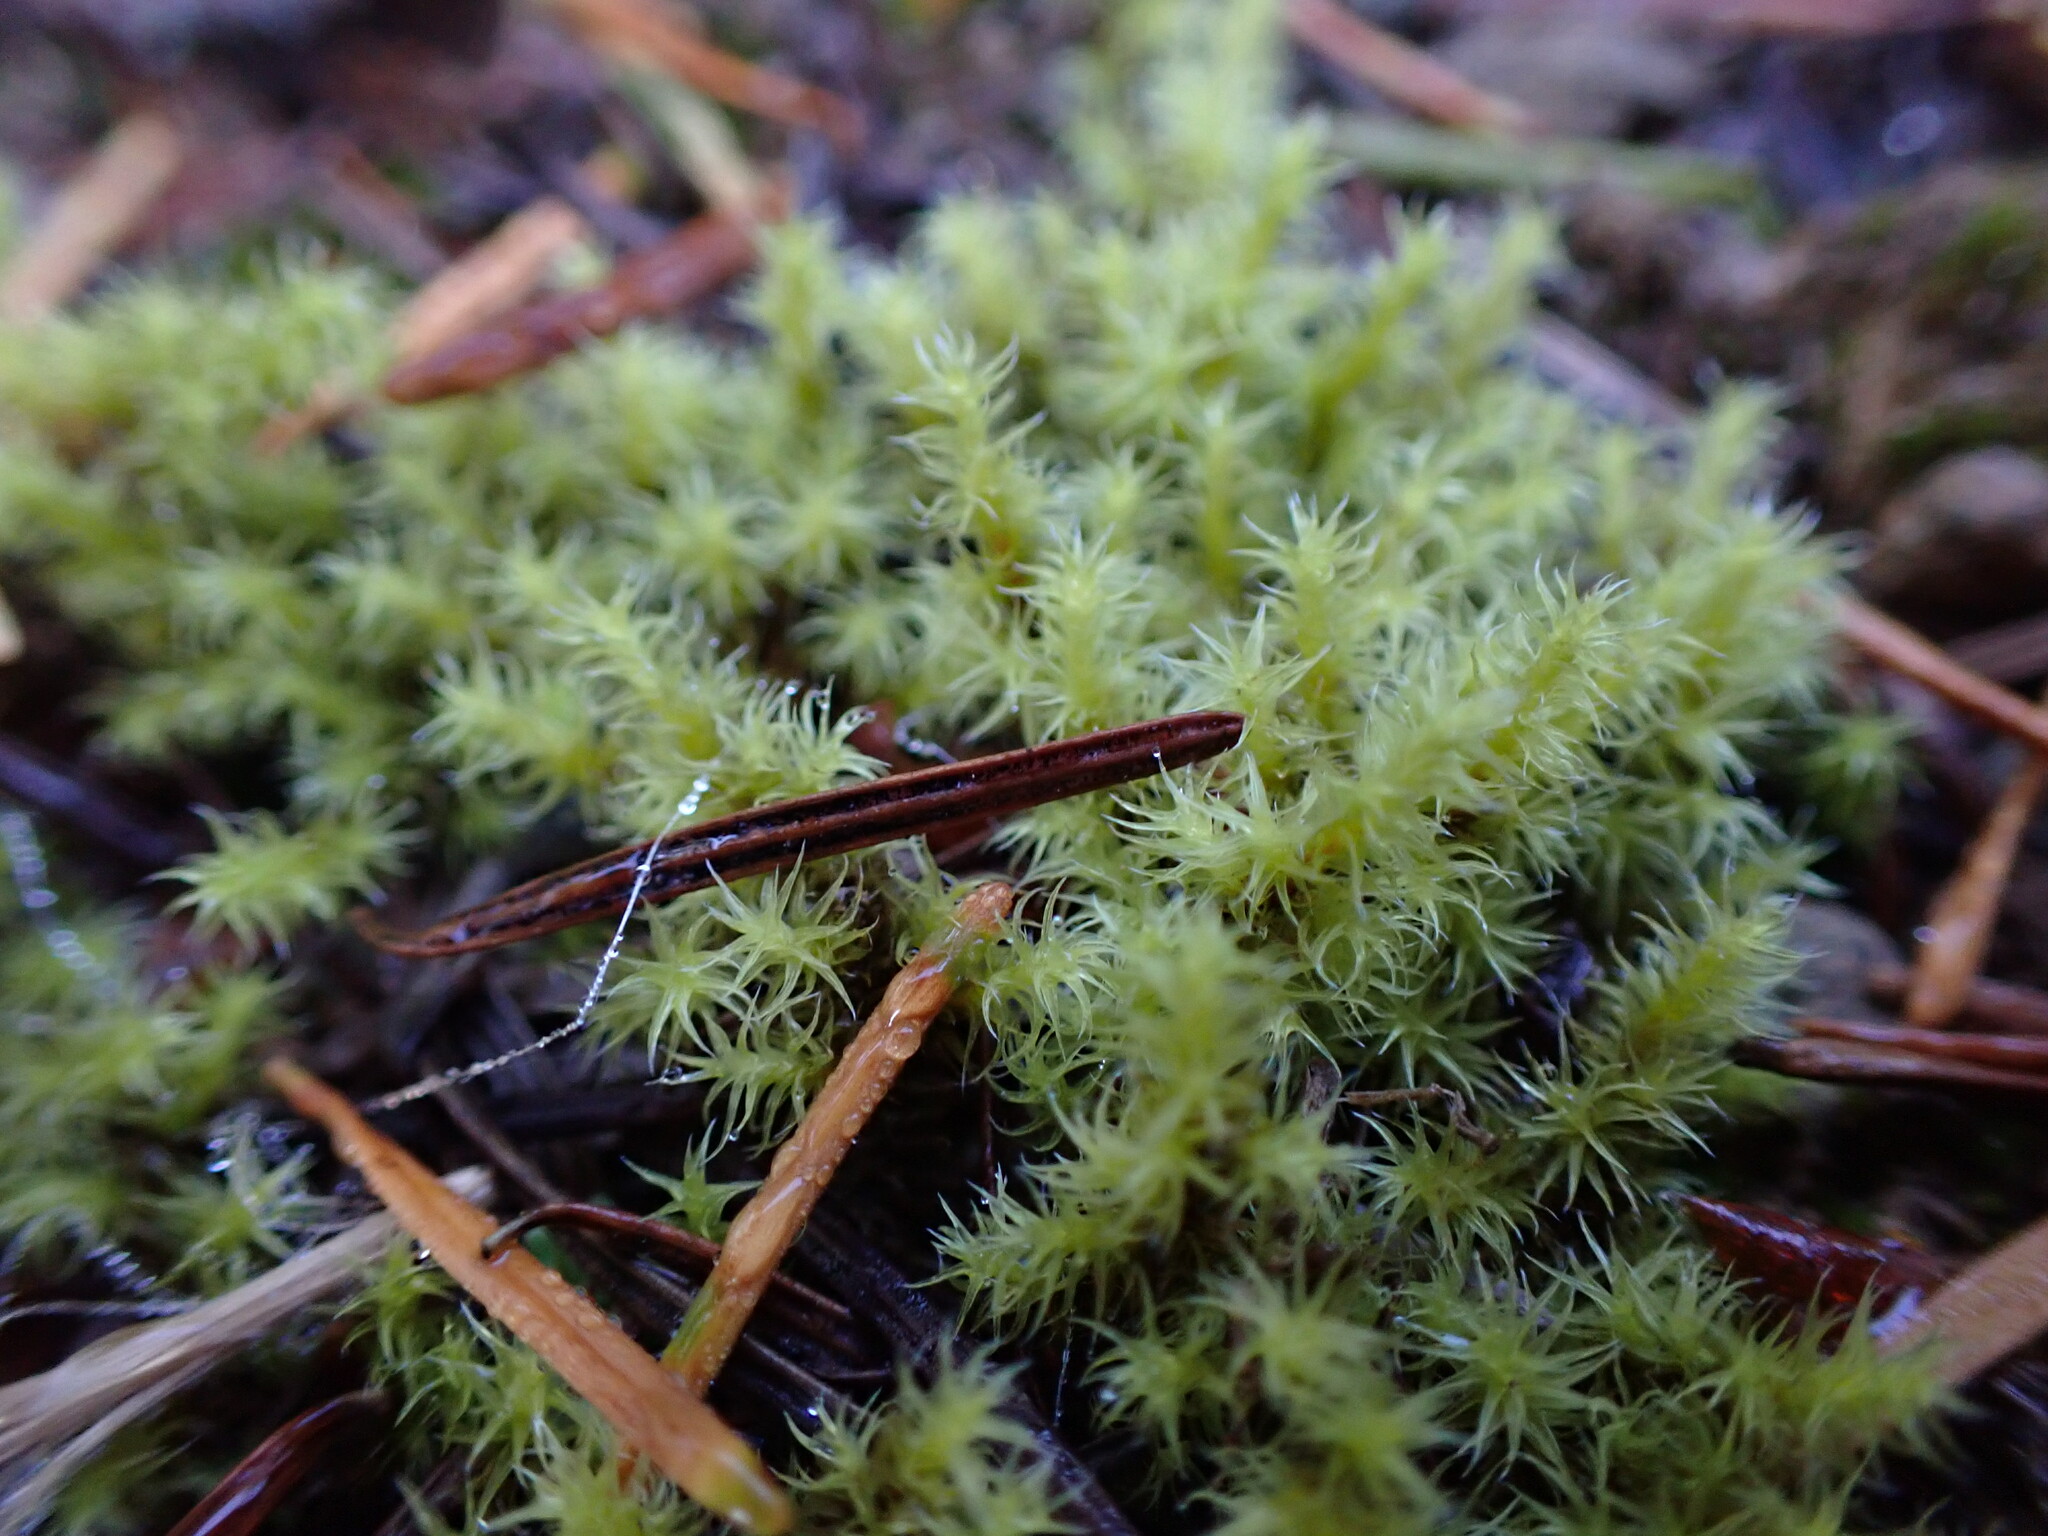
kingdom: Plantae
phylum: Bryophyta
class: Bryopsida
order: Grimmiales
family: Grimmiaceae
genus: Niphotrichum
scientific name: Niphotrichum elongatum
